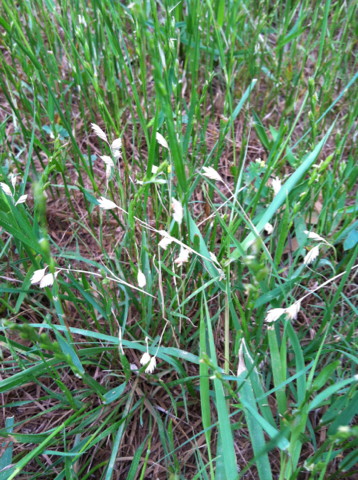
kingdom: Plantae
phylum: Tracheophyta
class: Liliopsida
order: Poales
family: Poaceae
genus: Bouteloua
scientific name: Bouteloua dactyloides
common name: Buffalo grass
